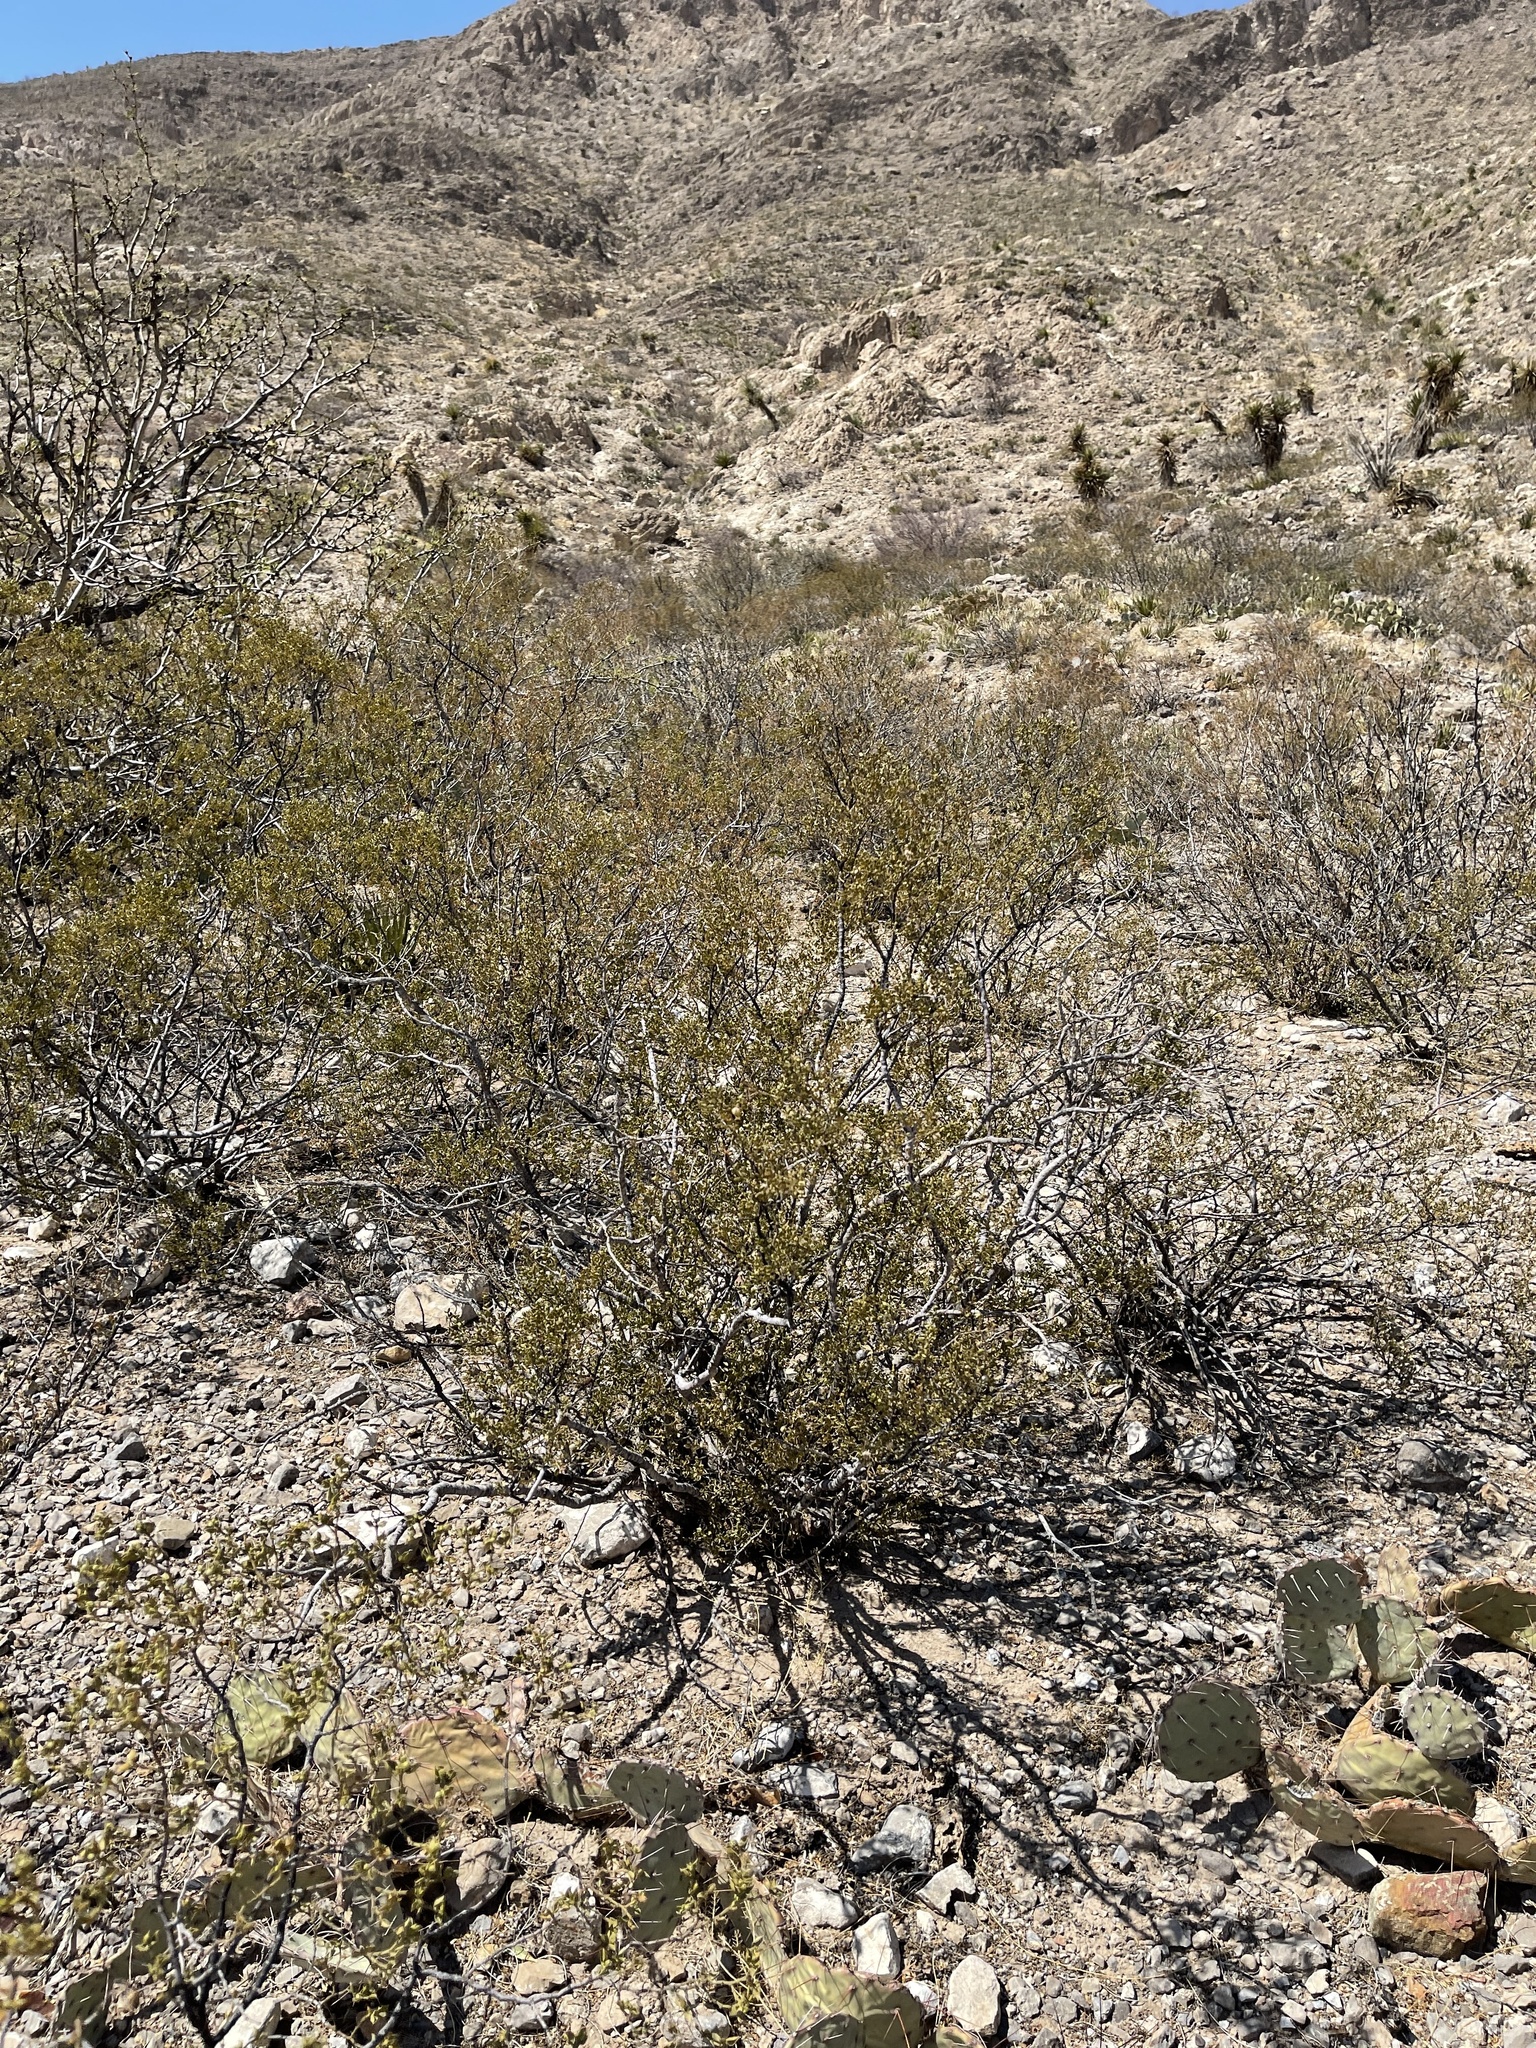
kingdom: Plantae
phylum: Tracheophyta
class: Magnoliopsida
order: Zygophyllales
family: Zygophyllaceae
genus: Larrea
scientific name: Larrea tridentata
